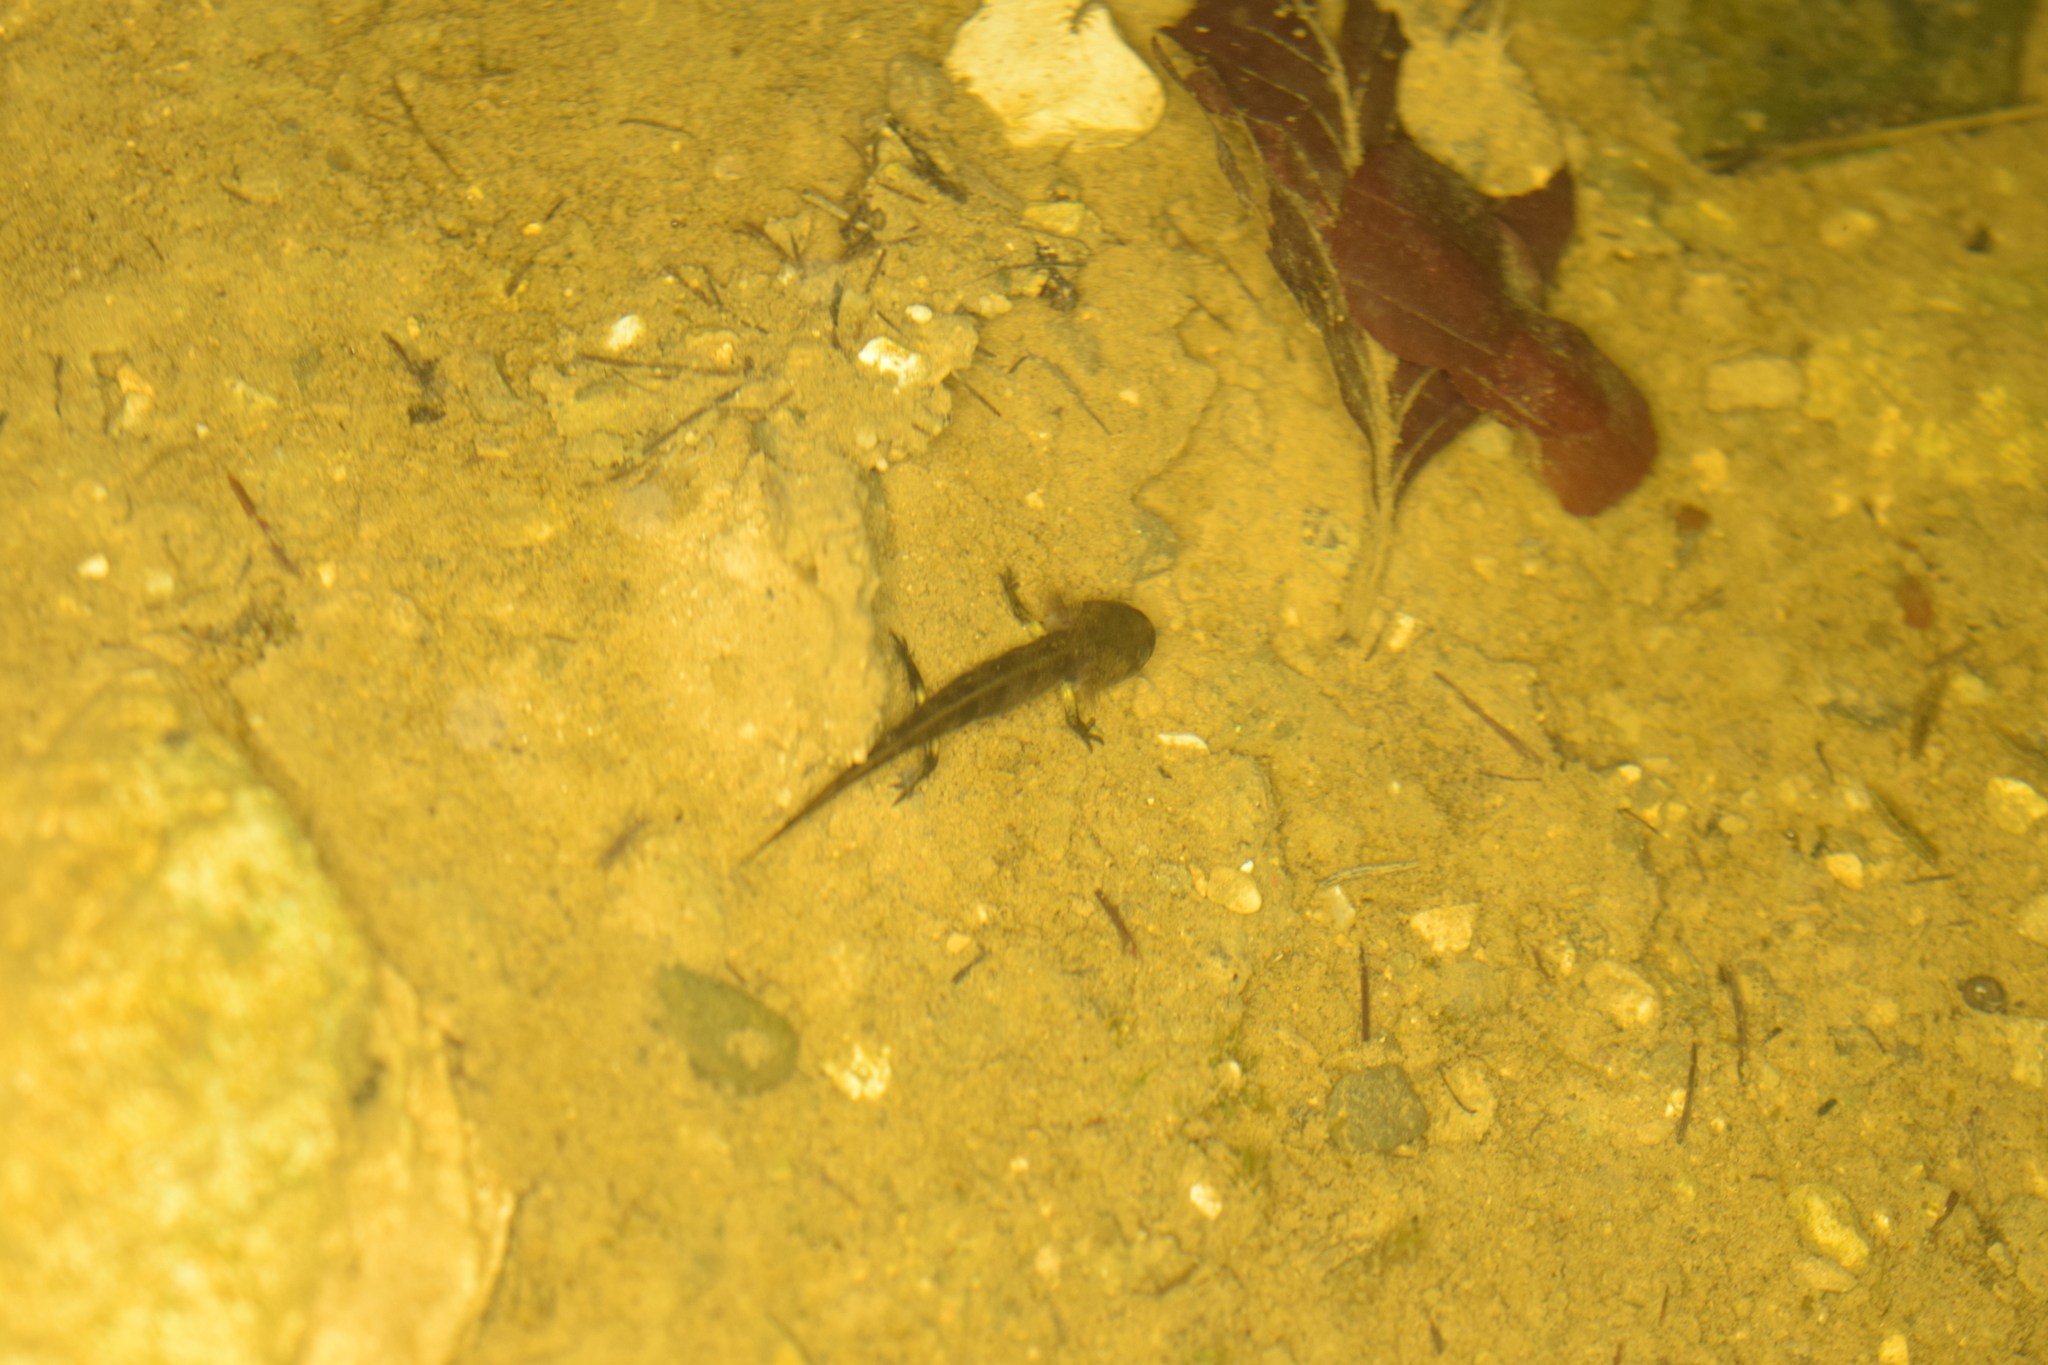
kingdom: Animalia
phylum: Chordata
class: Amphibia
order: Caudata
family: Salamandridae
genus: Salamandra
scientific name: Salamandra salamandra
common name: Fire salamander
